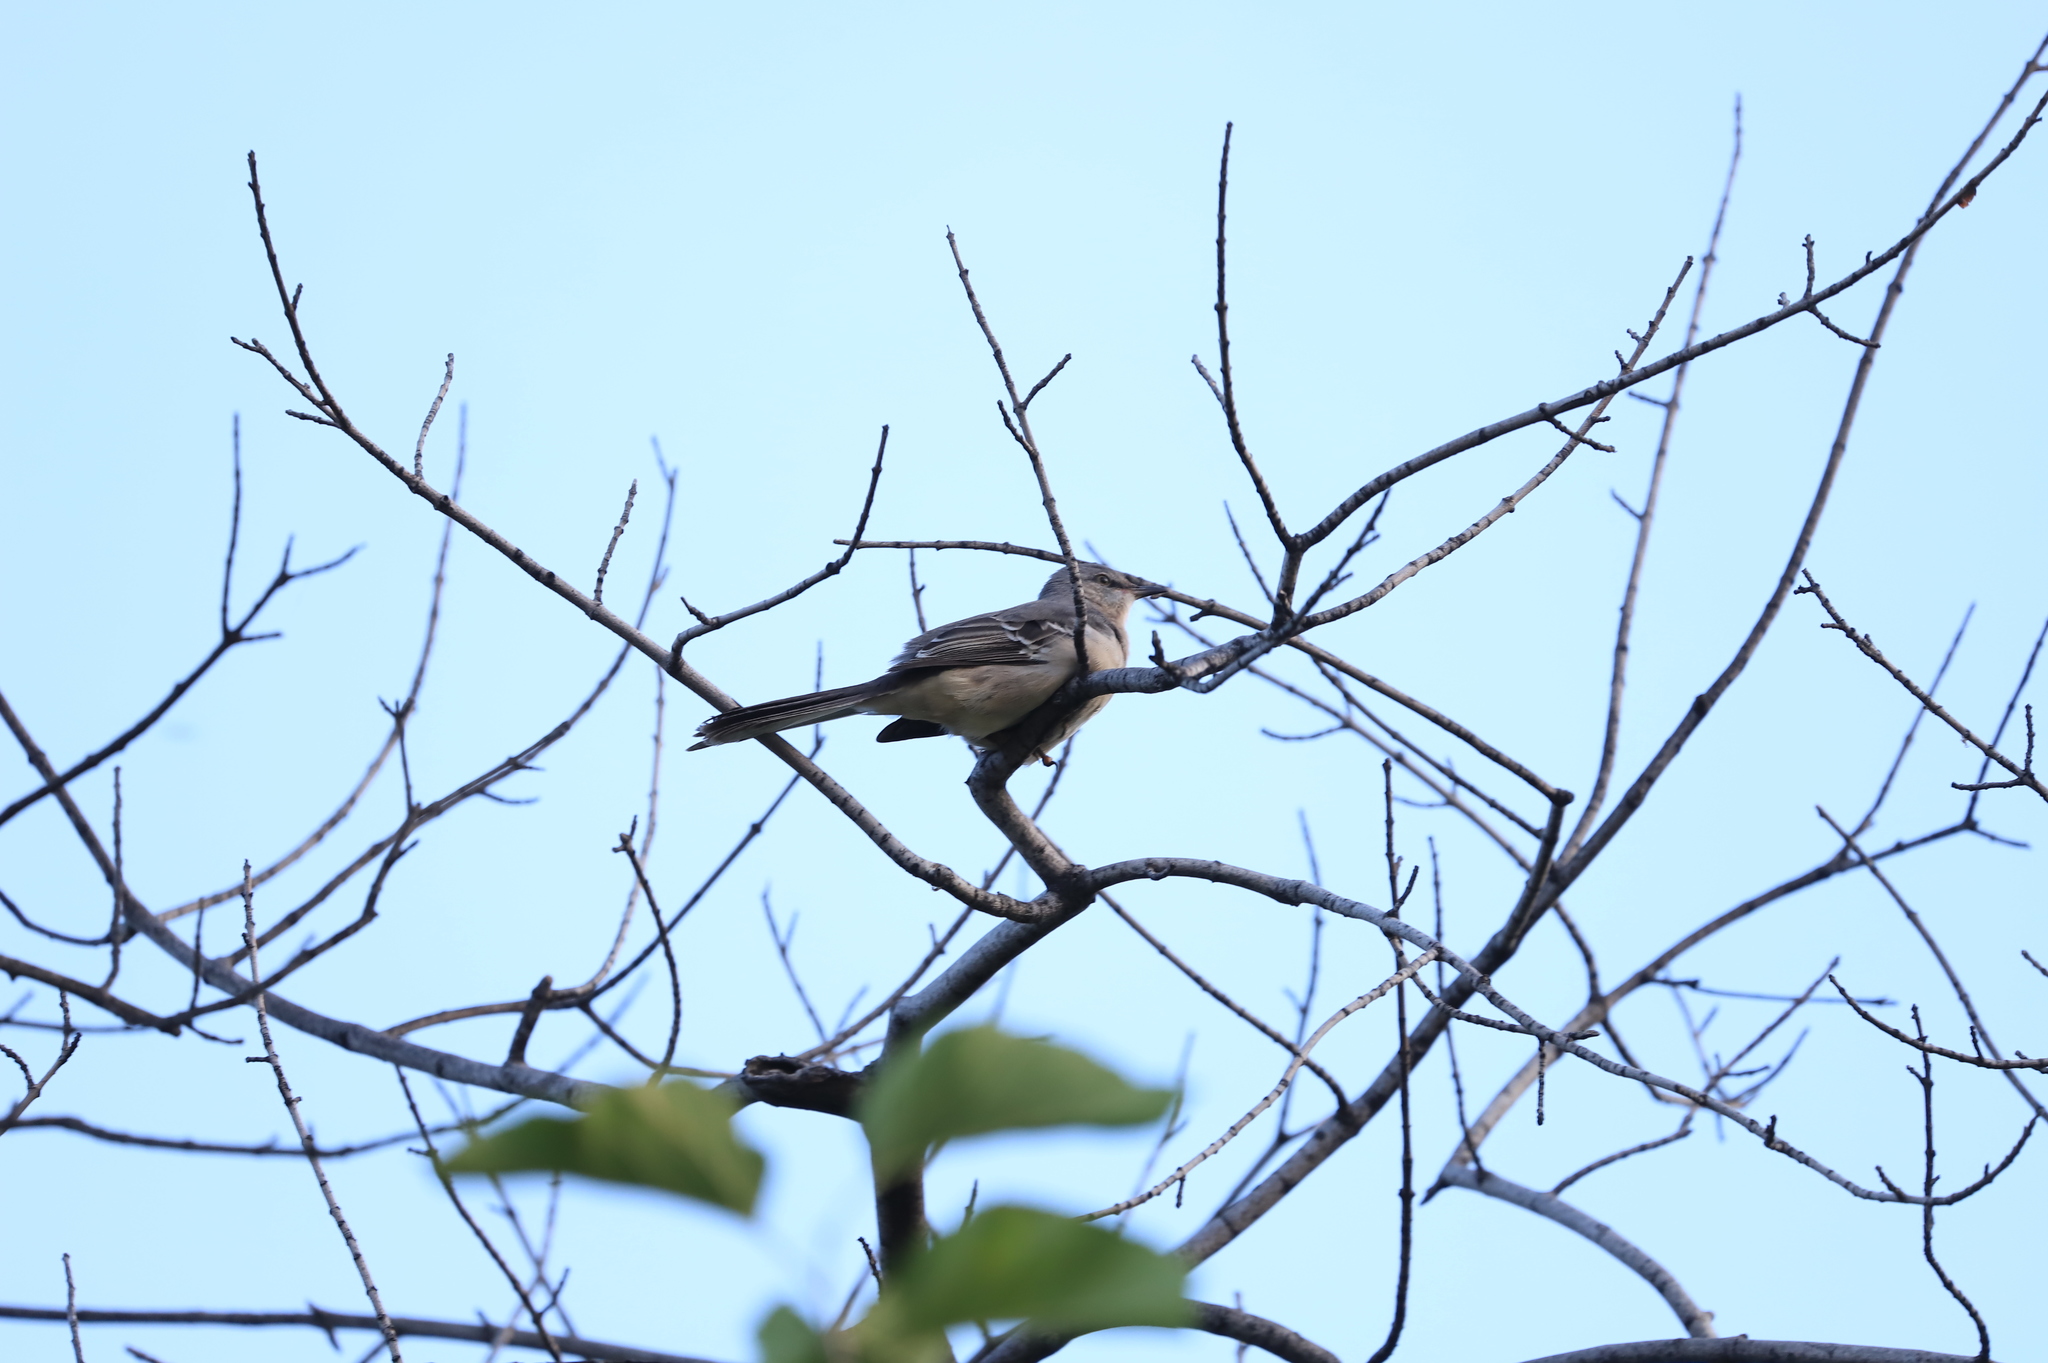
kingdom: Animalia
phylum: Chordata
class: Aves
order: Passeriformes
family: Mimidae
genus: Mimus
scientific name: Mimus polyglottos
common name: Northern mockingbird
